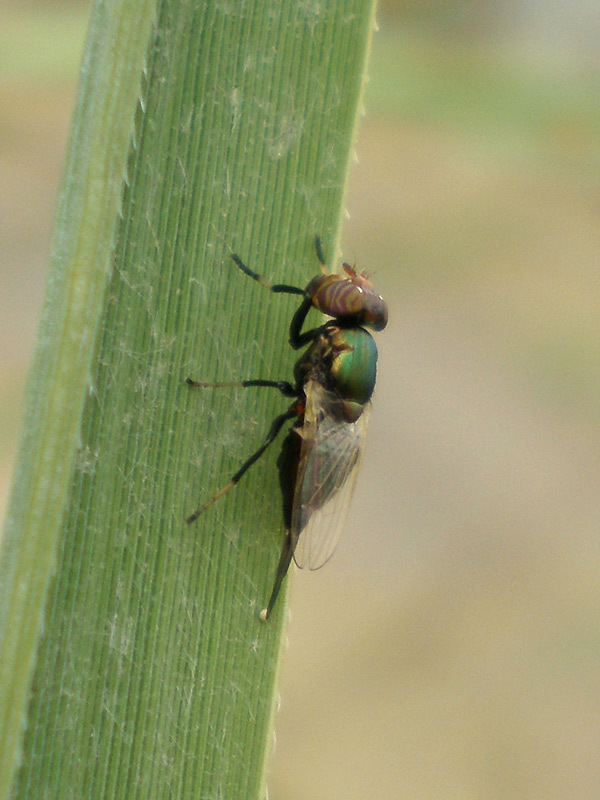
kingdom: Animalia
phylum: Arthropoda
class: Insecta
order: Diptera
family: Ulidiidae
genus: Physiphora
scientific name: Physiphora alceae
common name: Picture-winged fly
